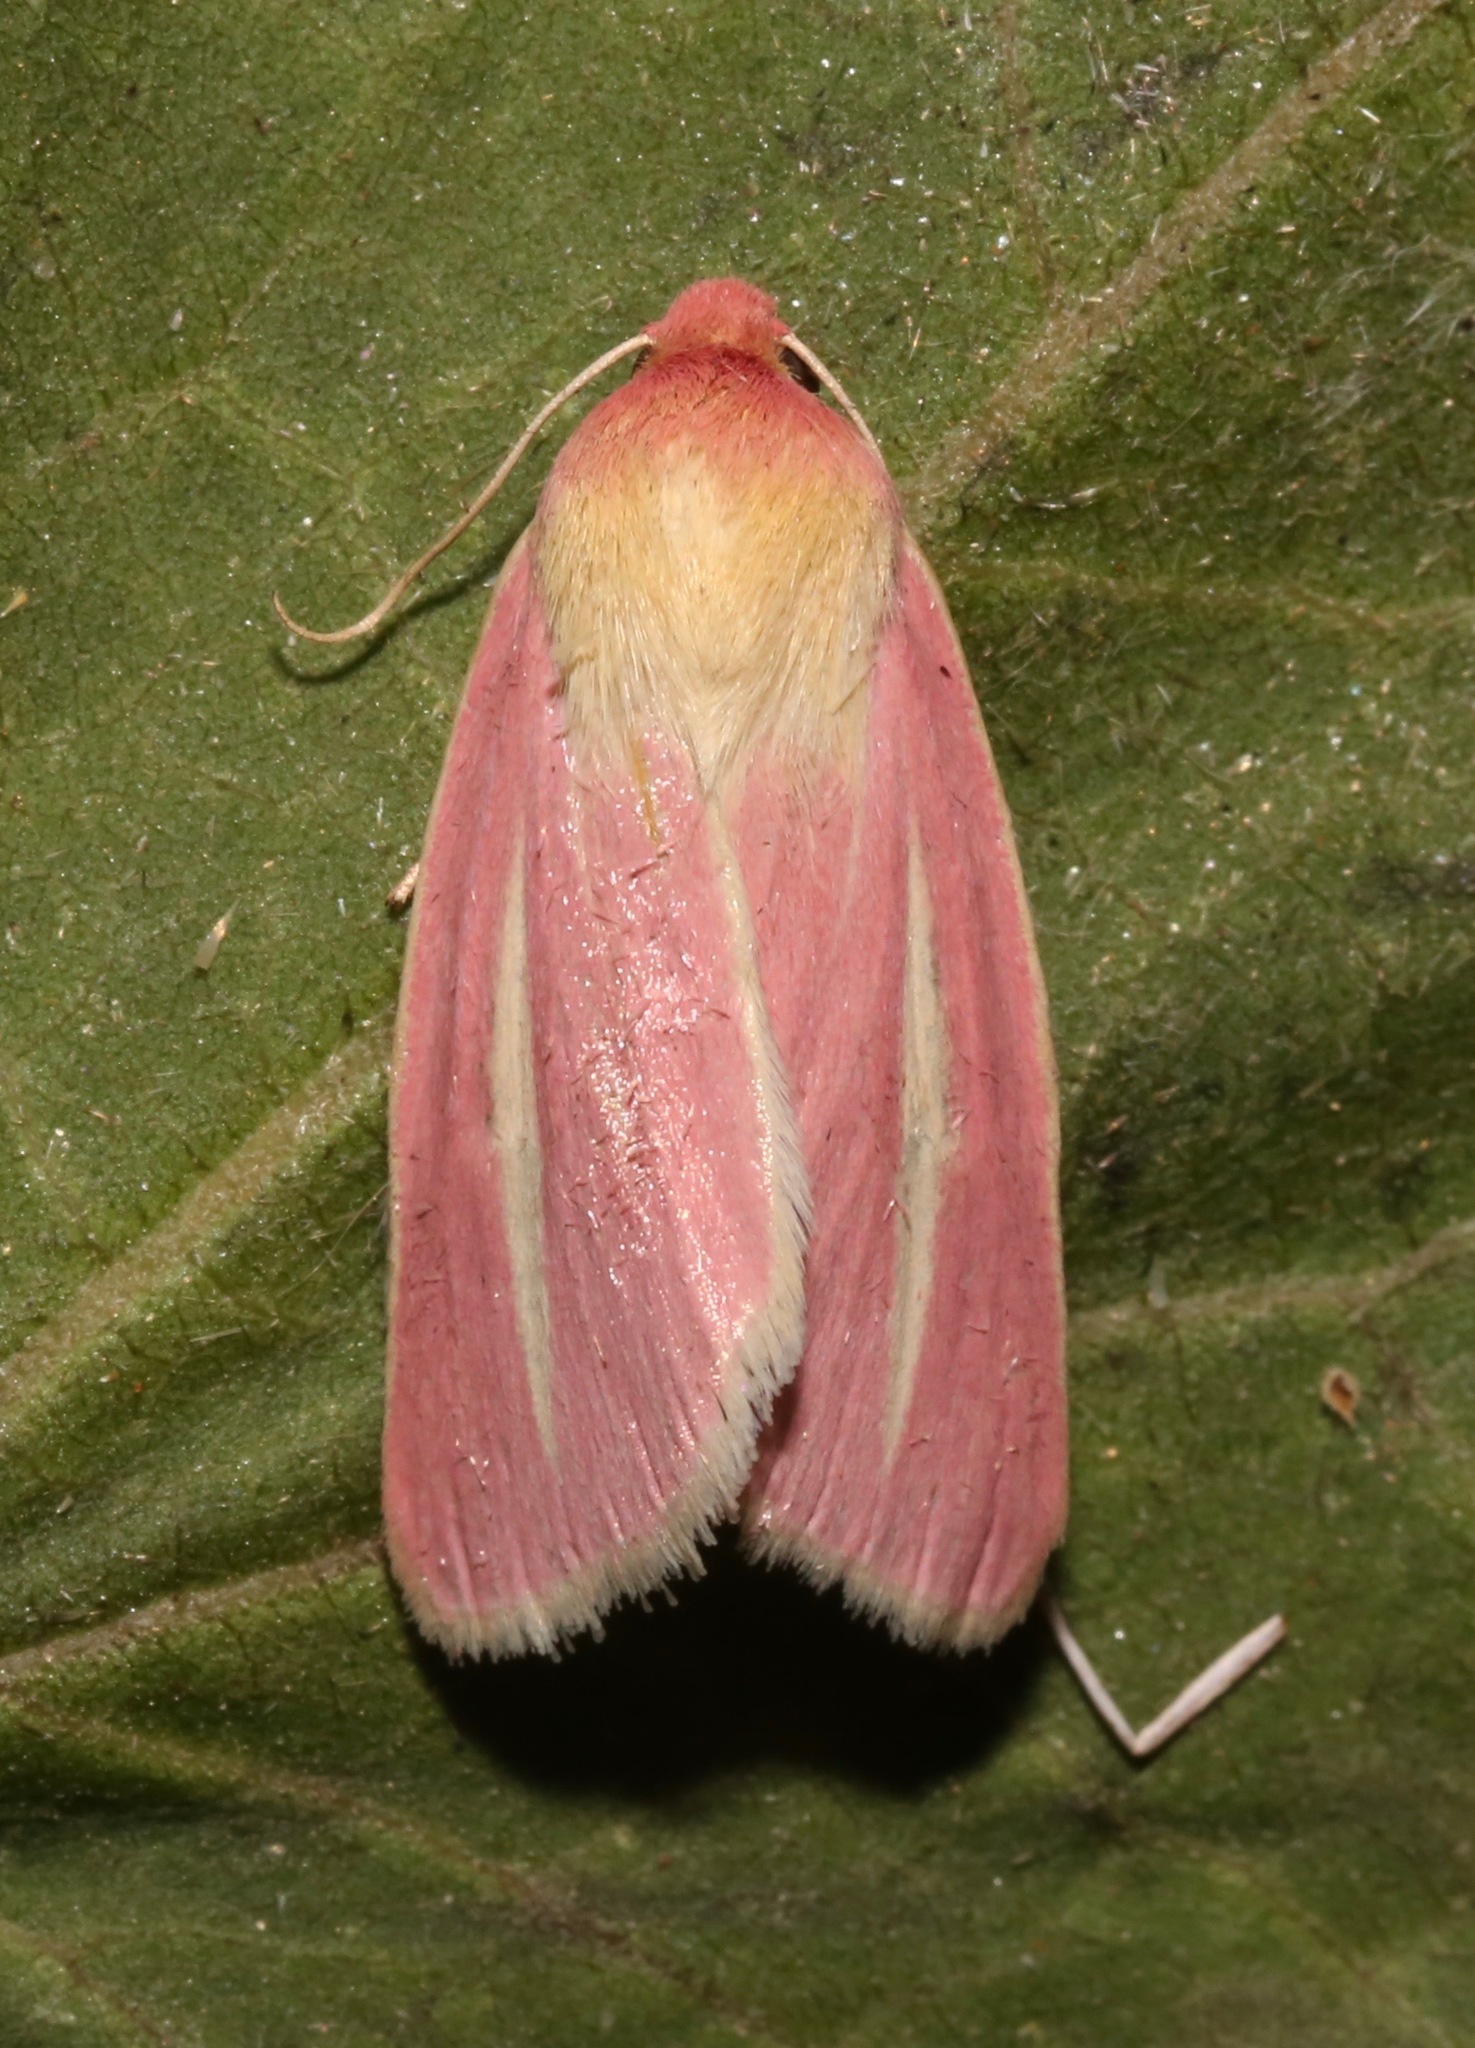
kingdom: Animalia
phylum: Arthropoda
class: Insecta
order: Lepidoptera
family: Noctuidae
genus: Heliocheilus
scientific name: Heliocheilus julia
